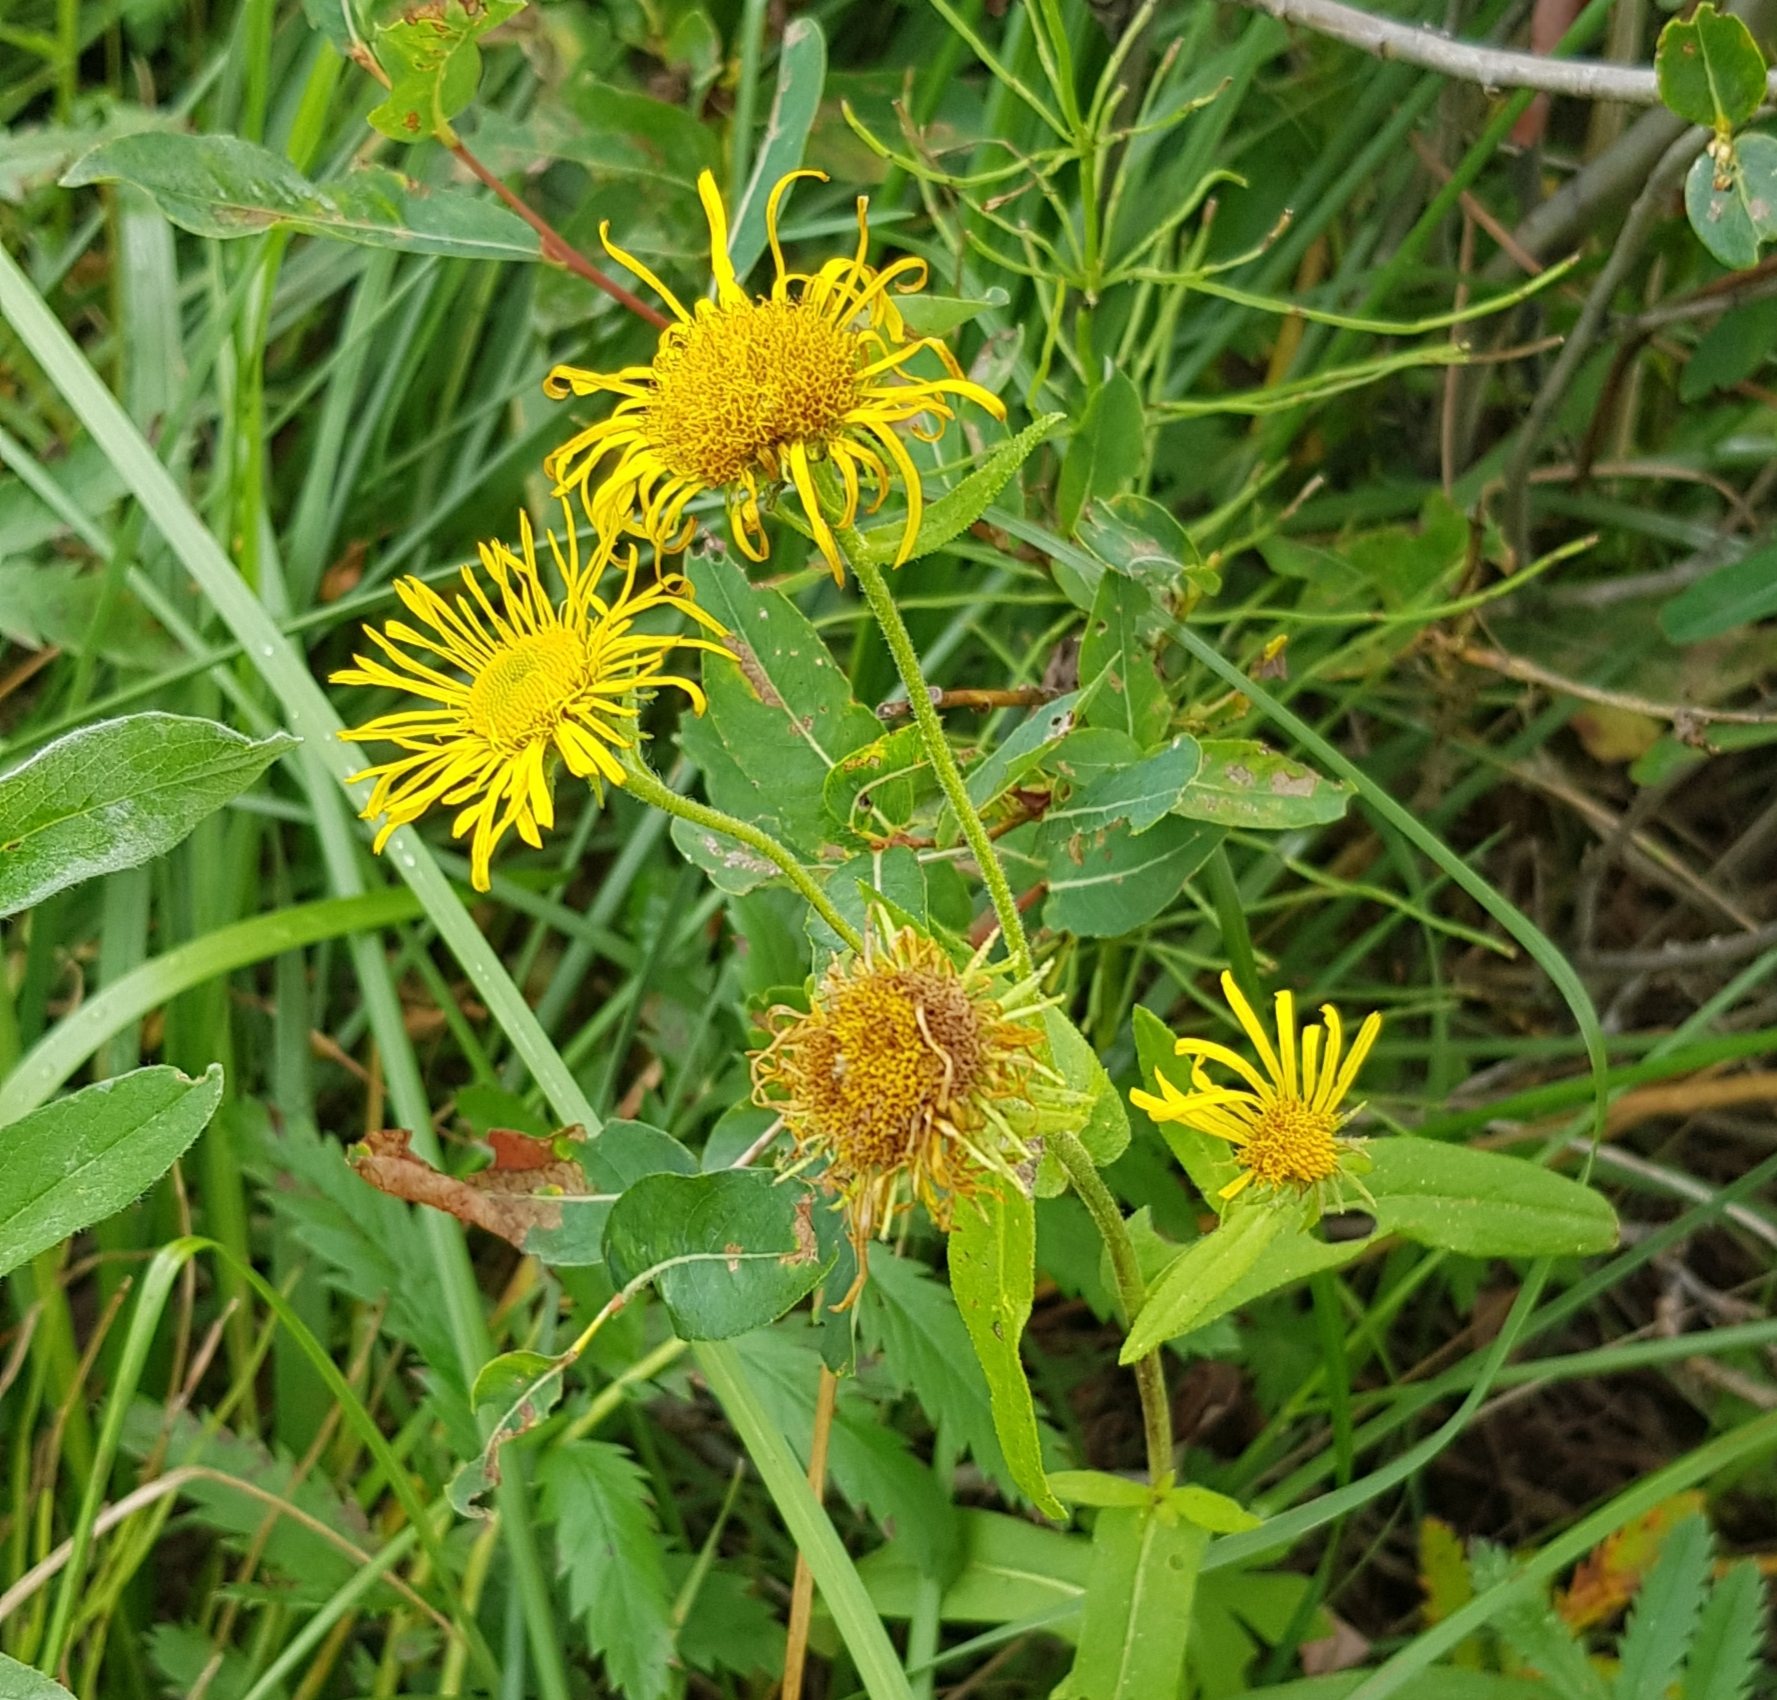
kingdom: Plantae
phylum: Tracheophyta
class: Magnoliopsida
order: Asterales
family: Asteraceae
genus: Pentanema
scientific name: Pentanema britannicum
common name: British elecampane
